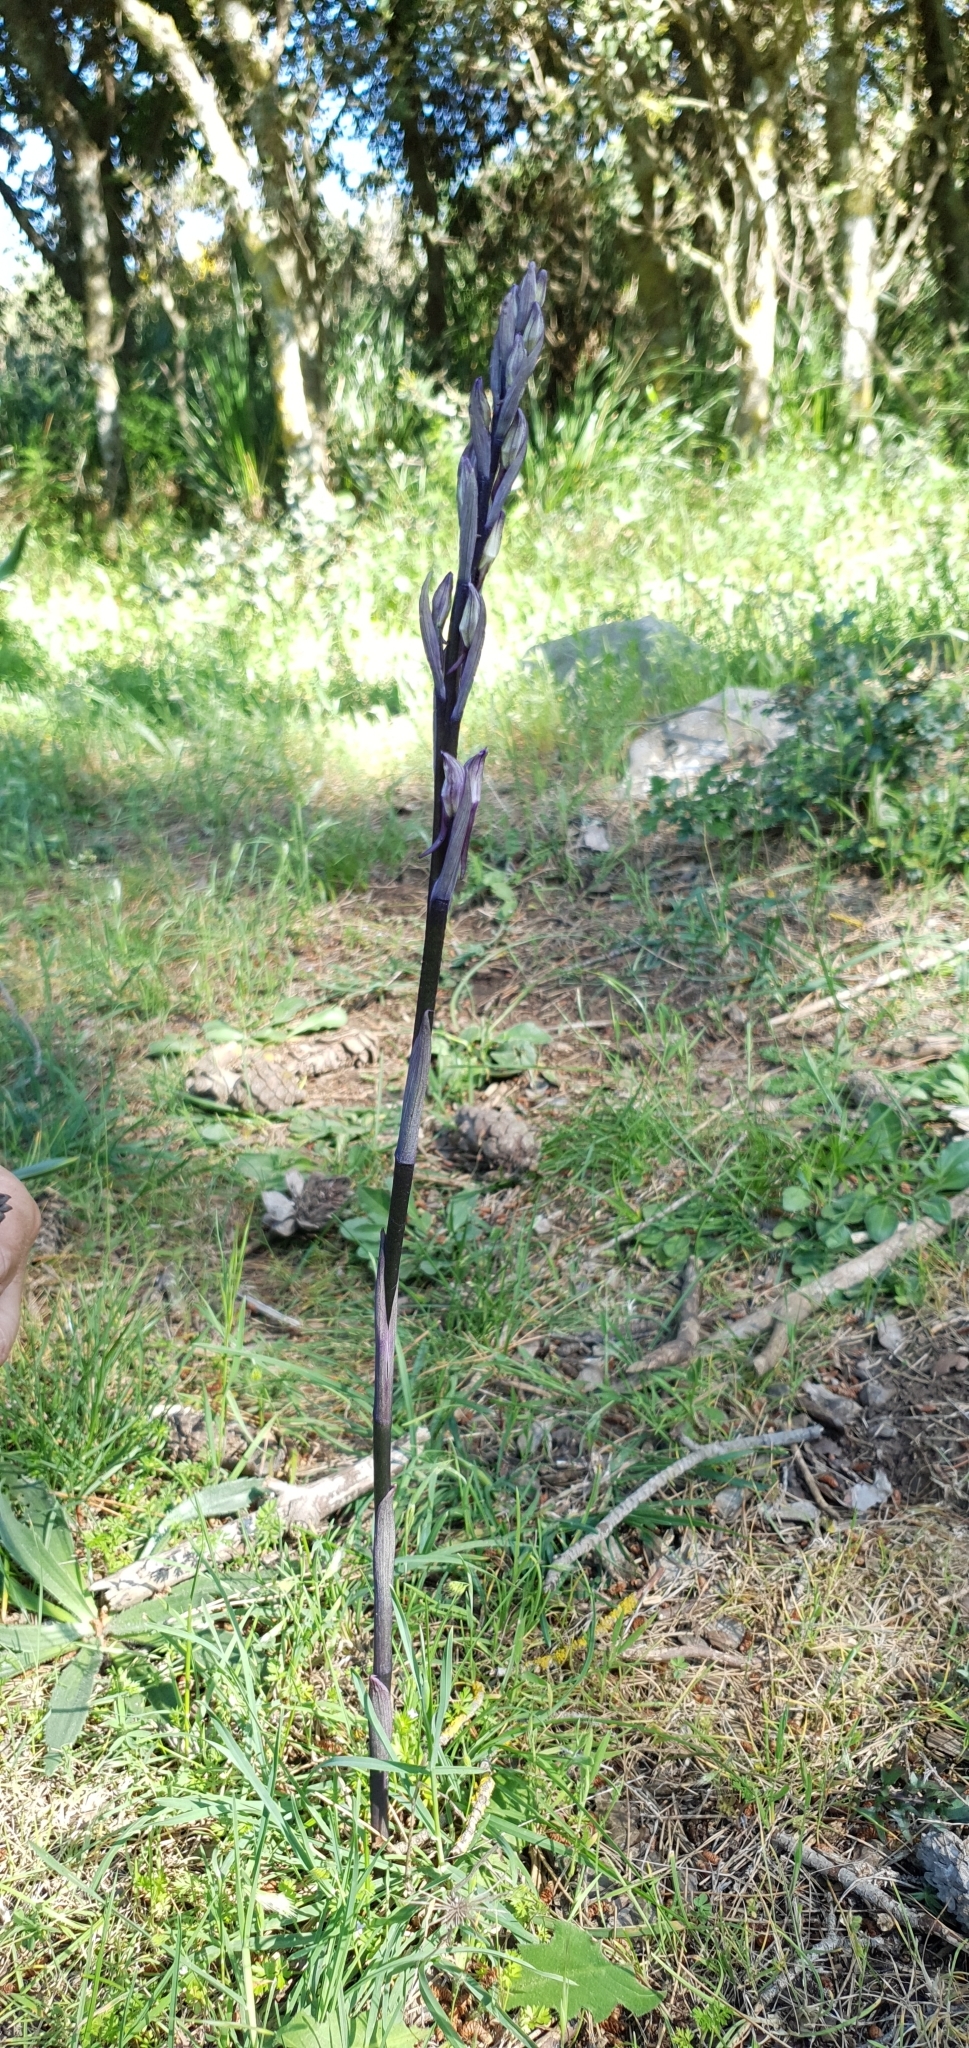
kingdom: Plantae
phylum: Tracheophyta
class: Liliopsida
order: Asparagales
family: Orchidaceae
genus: Limodorum
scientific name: Limodorum abortivum
